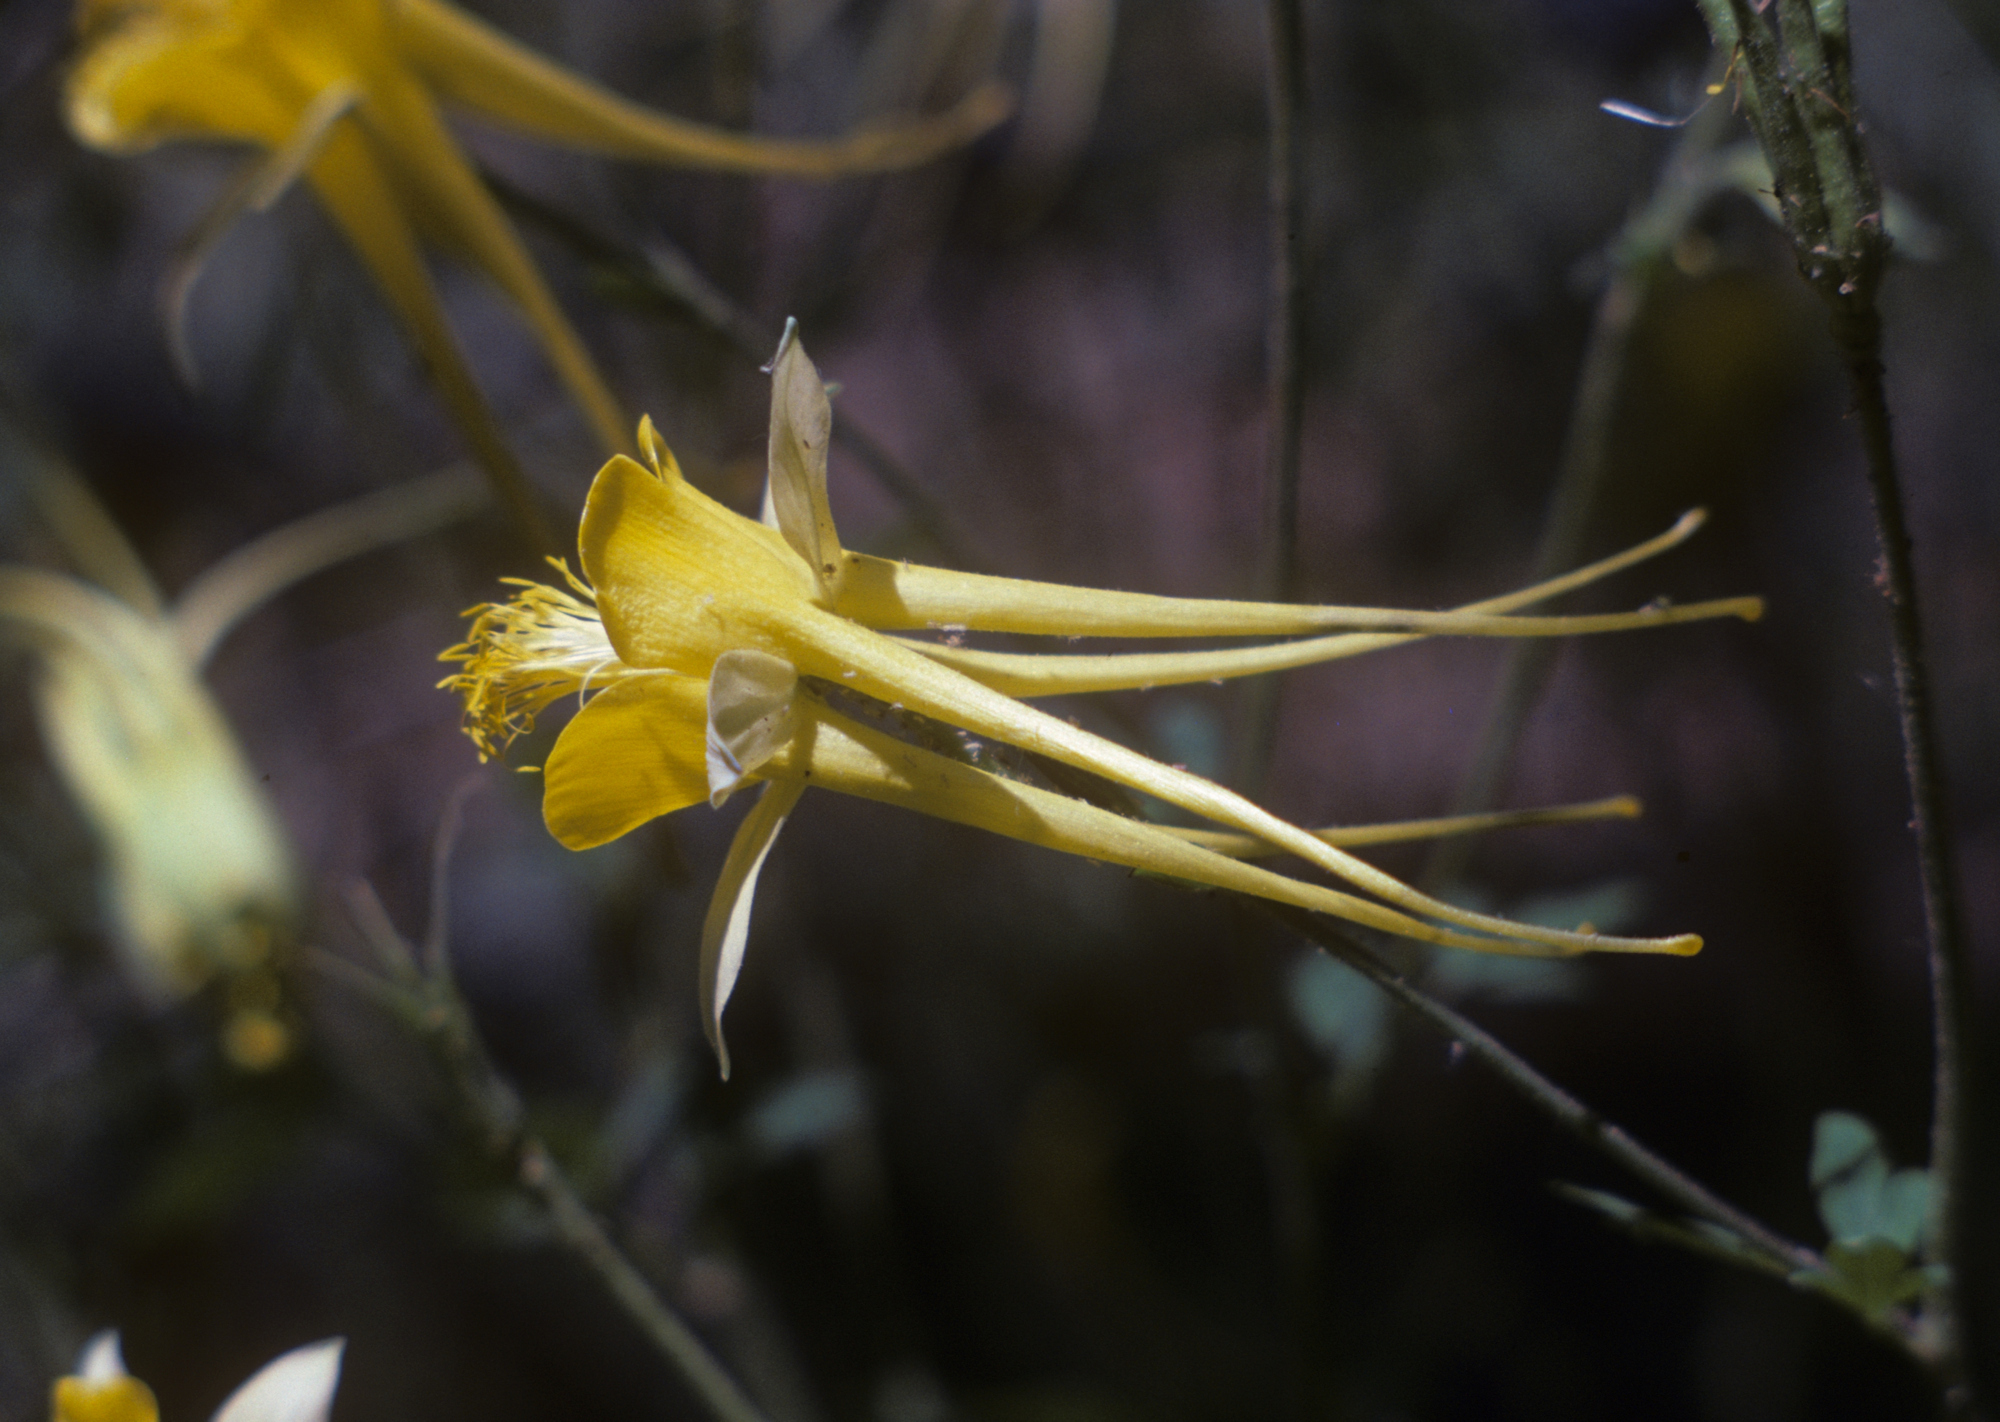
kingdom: Plantae
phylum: Tracheophyta
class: Magnoliopsida
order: Ranunculales
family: Ranunculaceae
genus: Aquilegia
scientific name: Aquilegia chrysantha
